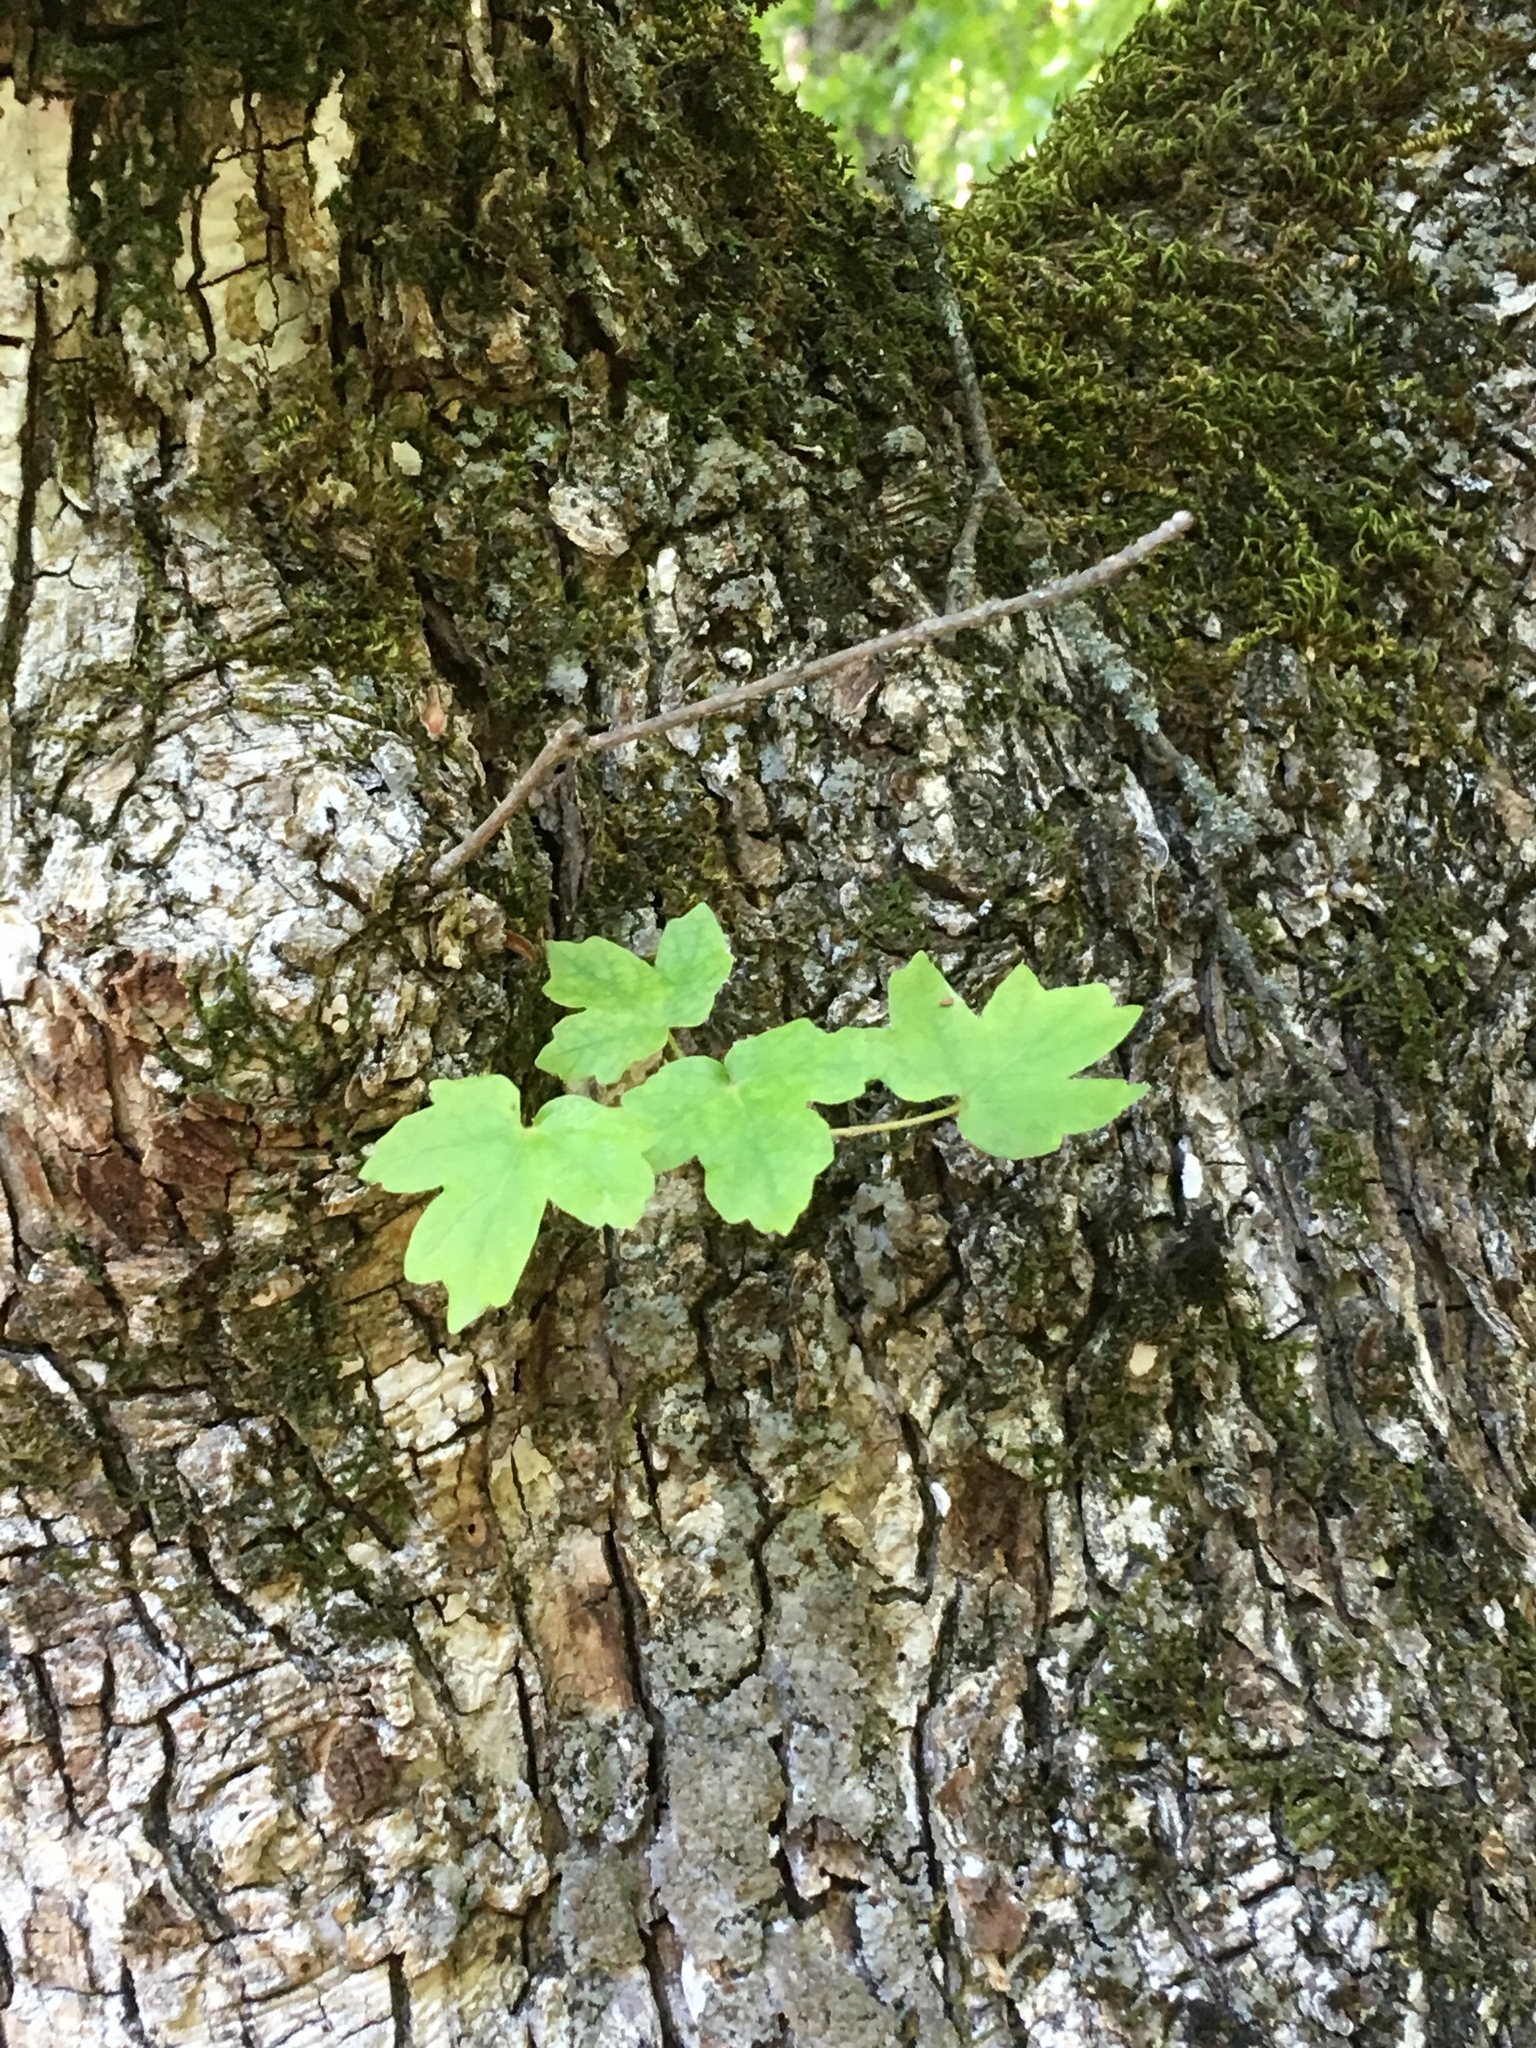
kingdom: Plantae
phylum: Tracheophyta
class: Magnoliopsida
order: Sapindales
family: Sapindaceae
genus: Acer
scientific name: Acer campestre
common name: Field maple
